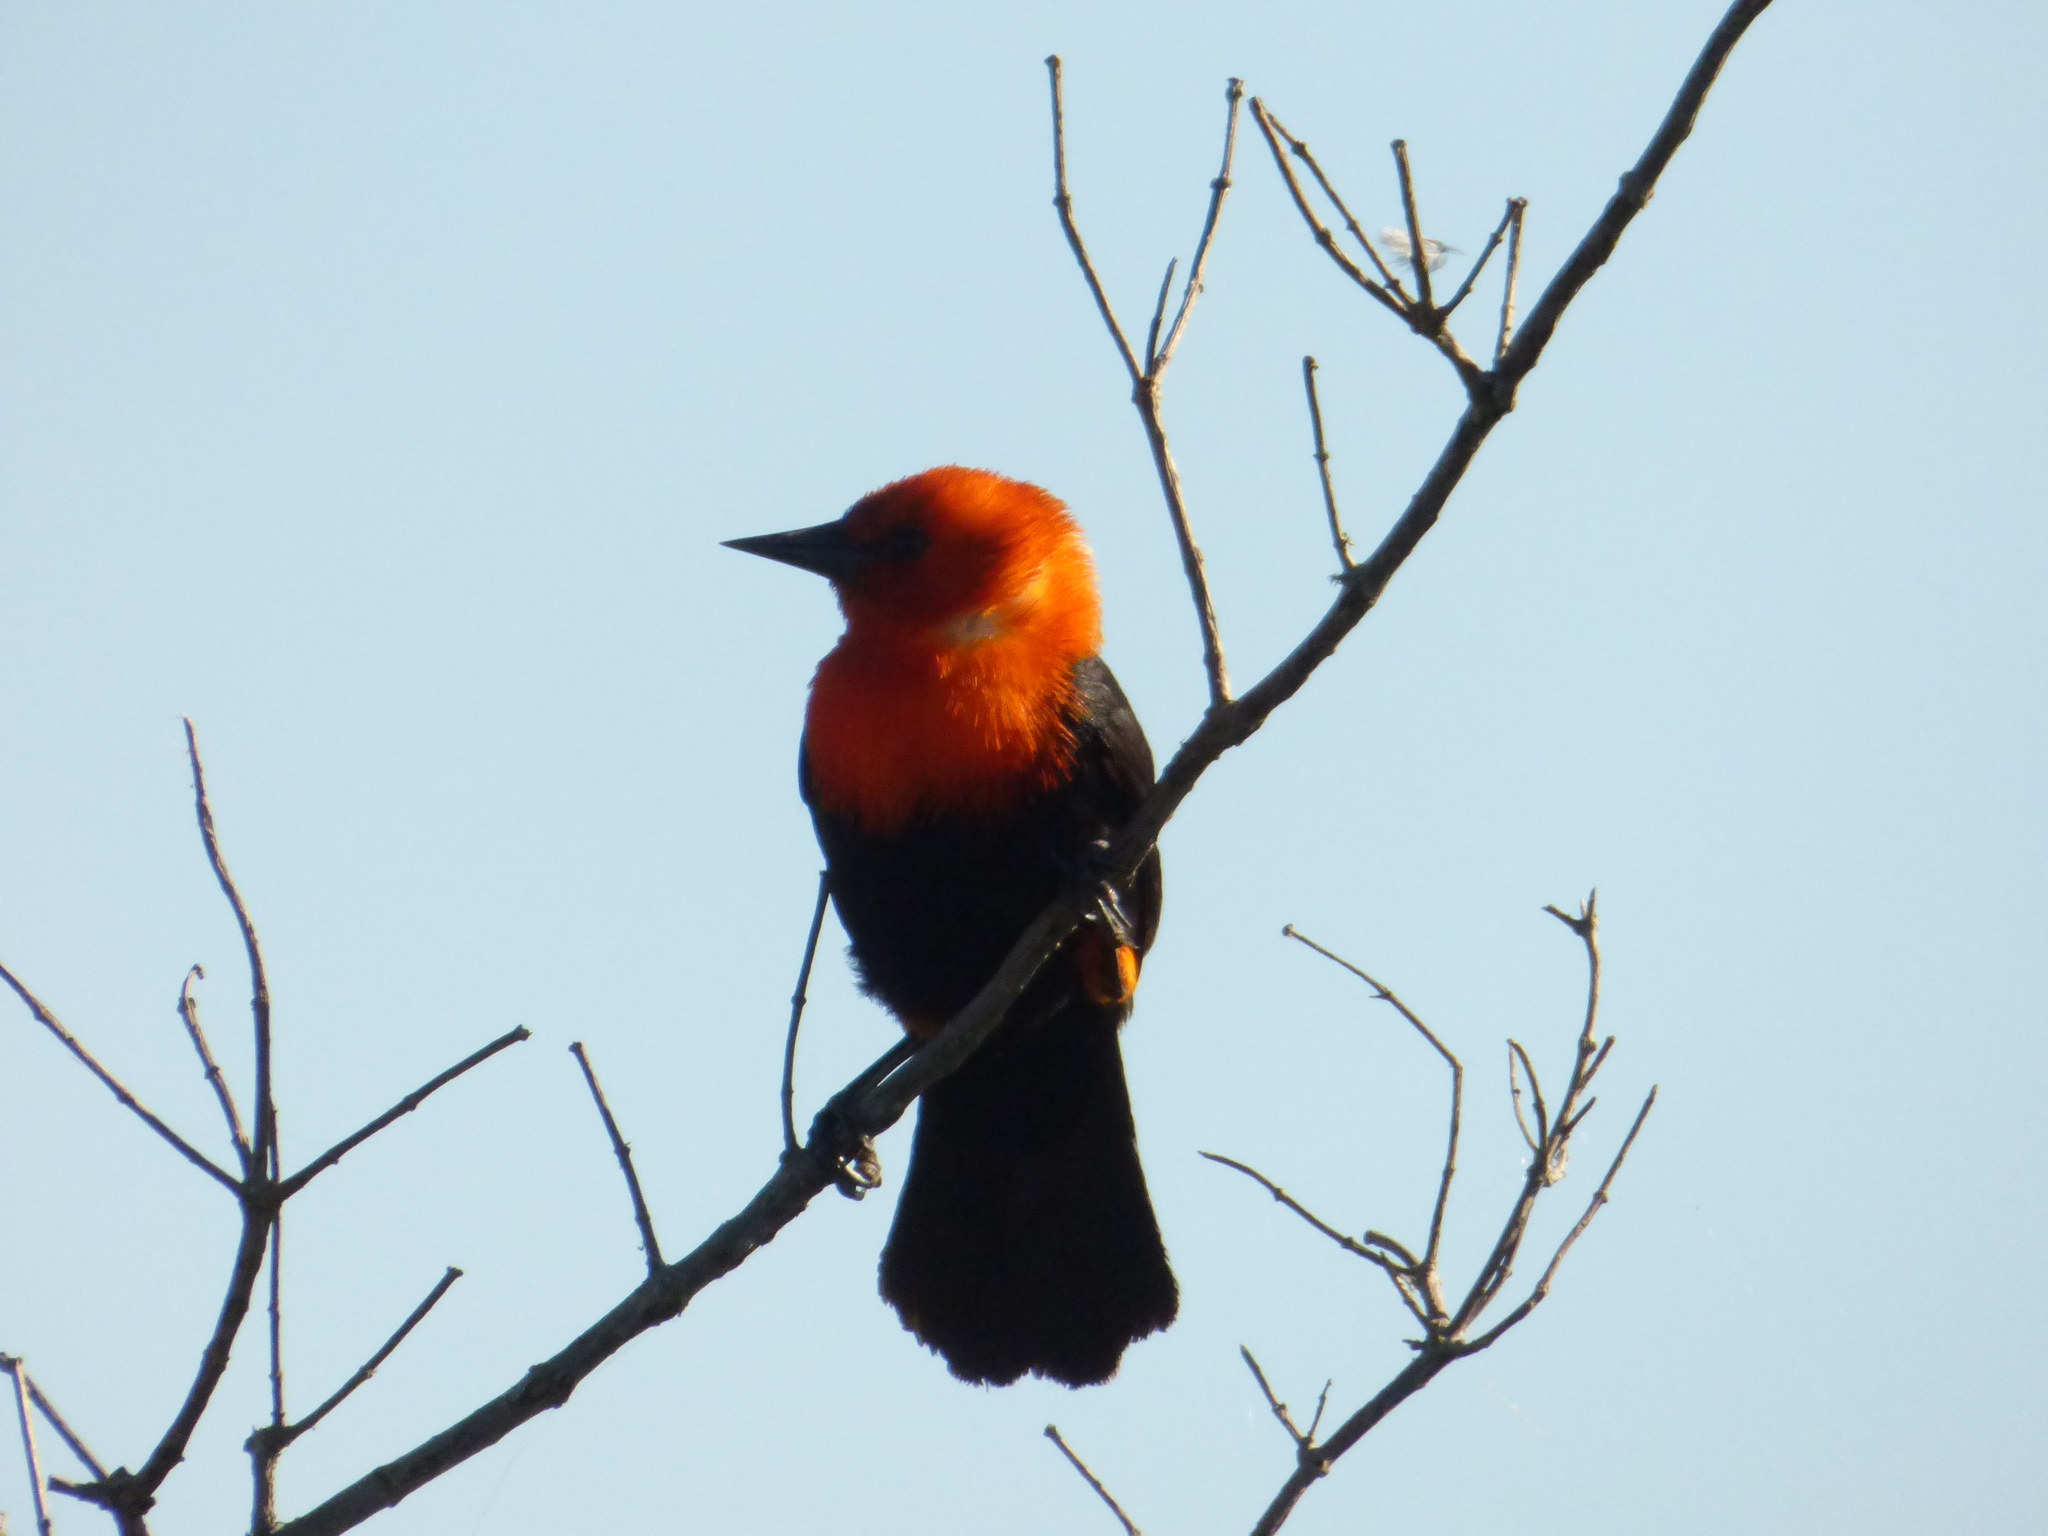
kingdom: Animalia
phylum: Chordata
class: Aves
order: Passeriformes
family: Icteridae
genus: Amblyramphus
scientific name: Amblyramphus holosericeus
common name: Scarlet-headed blackbird
